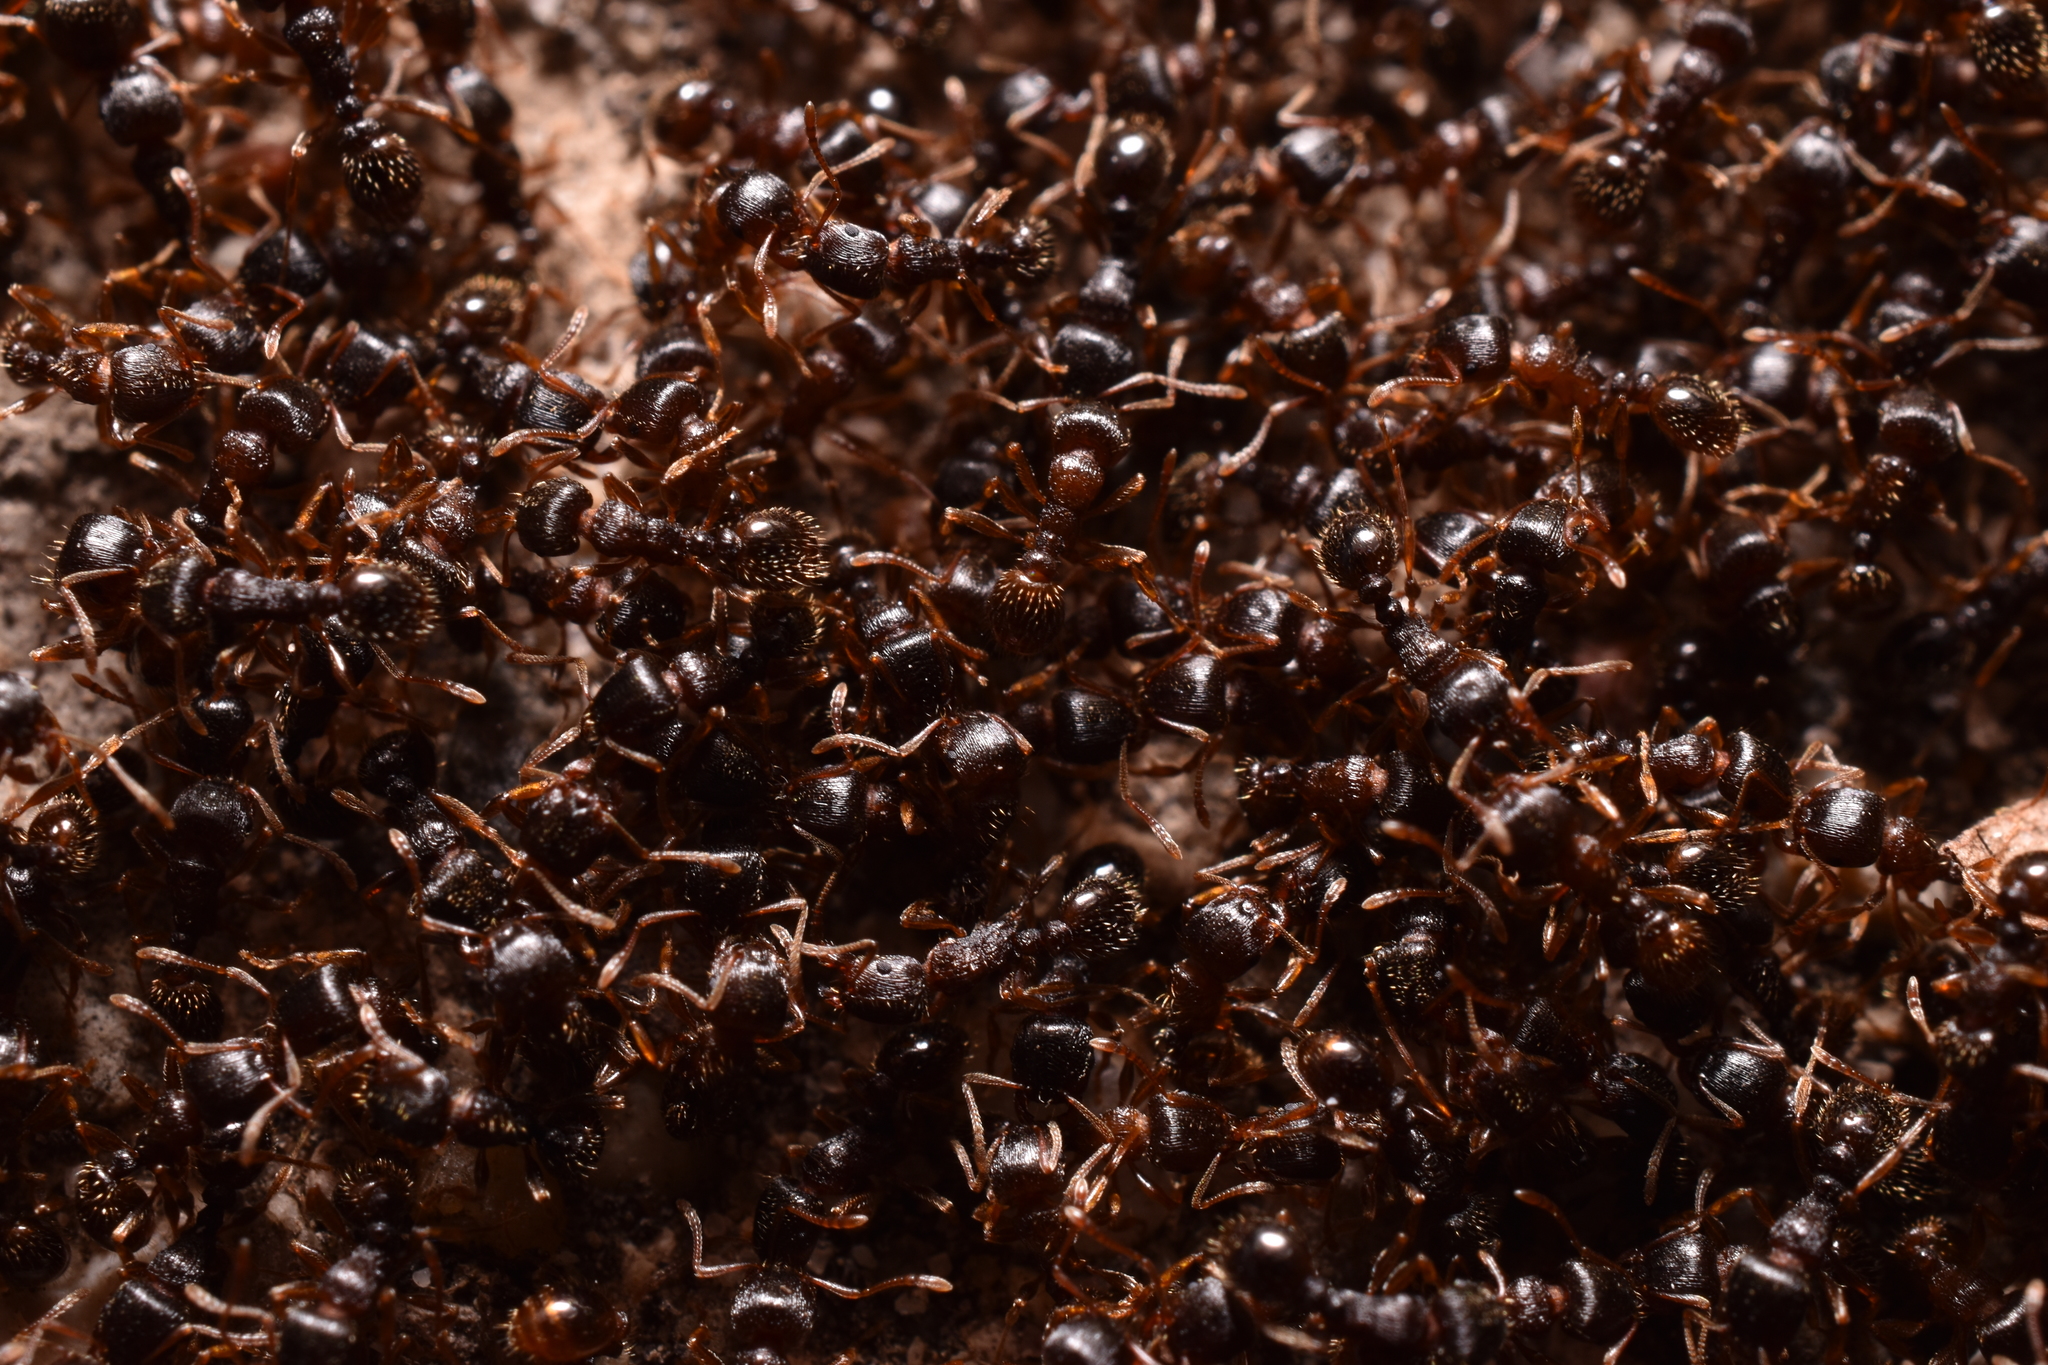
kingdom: Animalia
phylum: Arthropoda
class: Insecta
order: Hymenoptera
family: Formicidae
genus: Tetramorium
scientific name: Tetramorium immigrans
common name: Pavement ant
